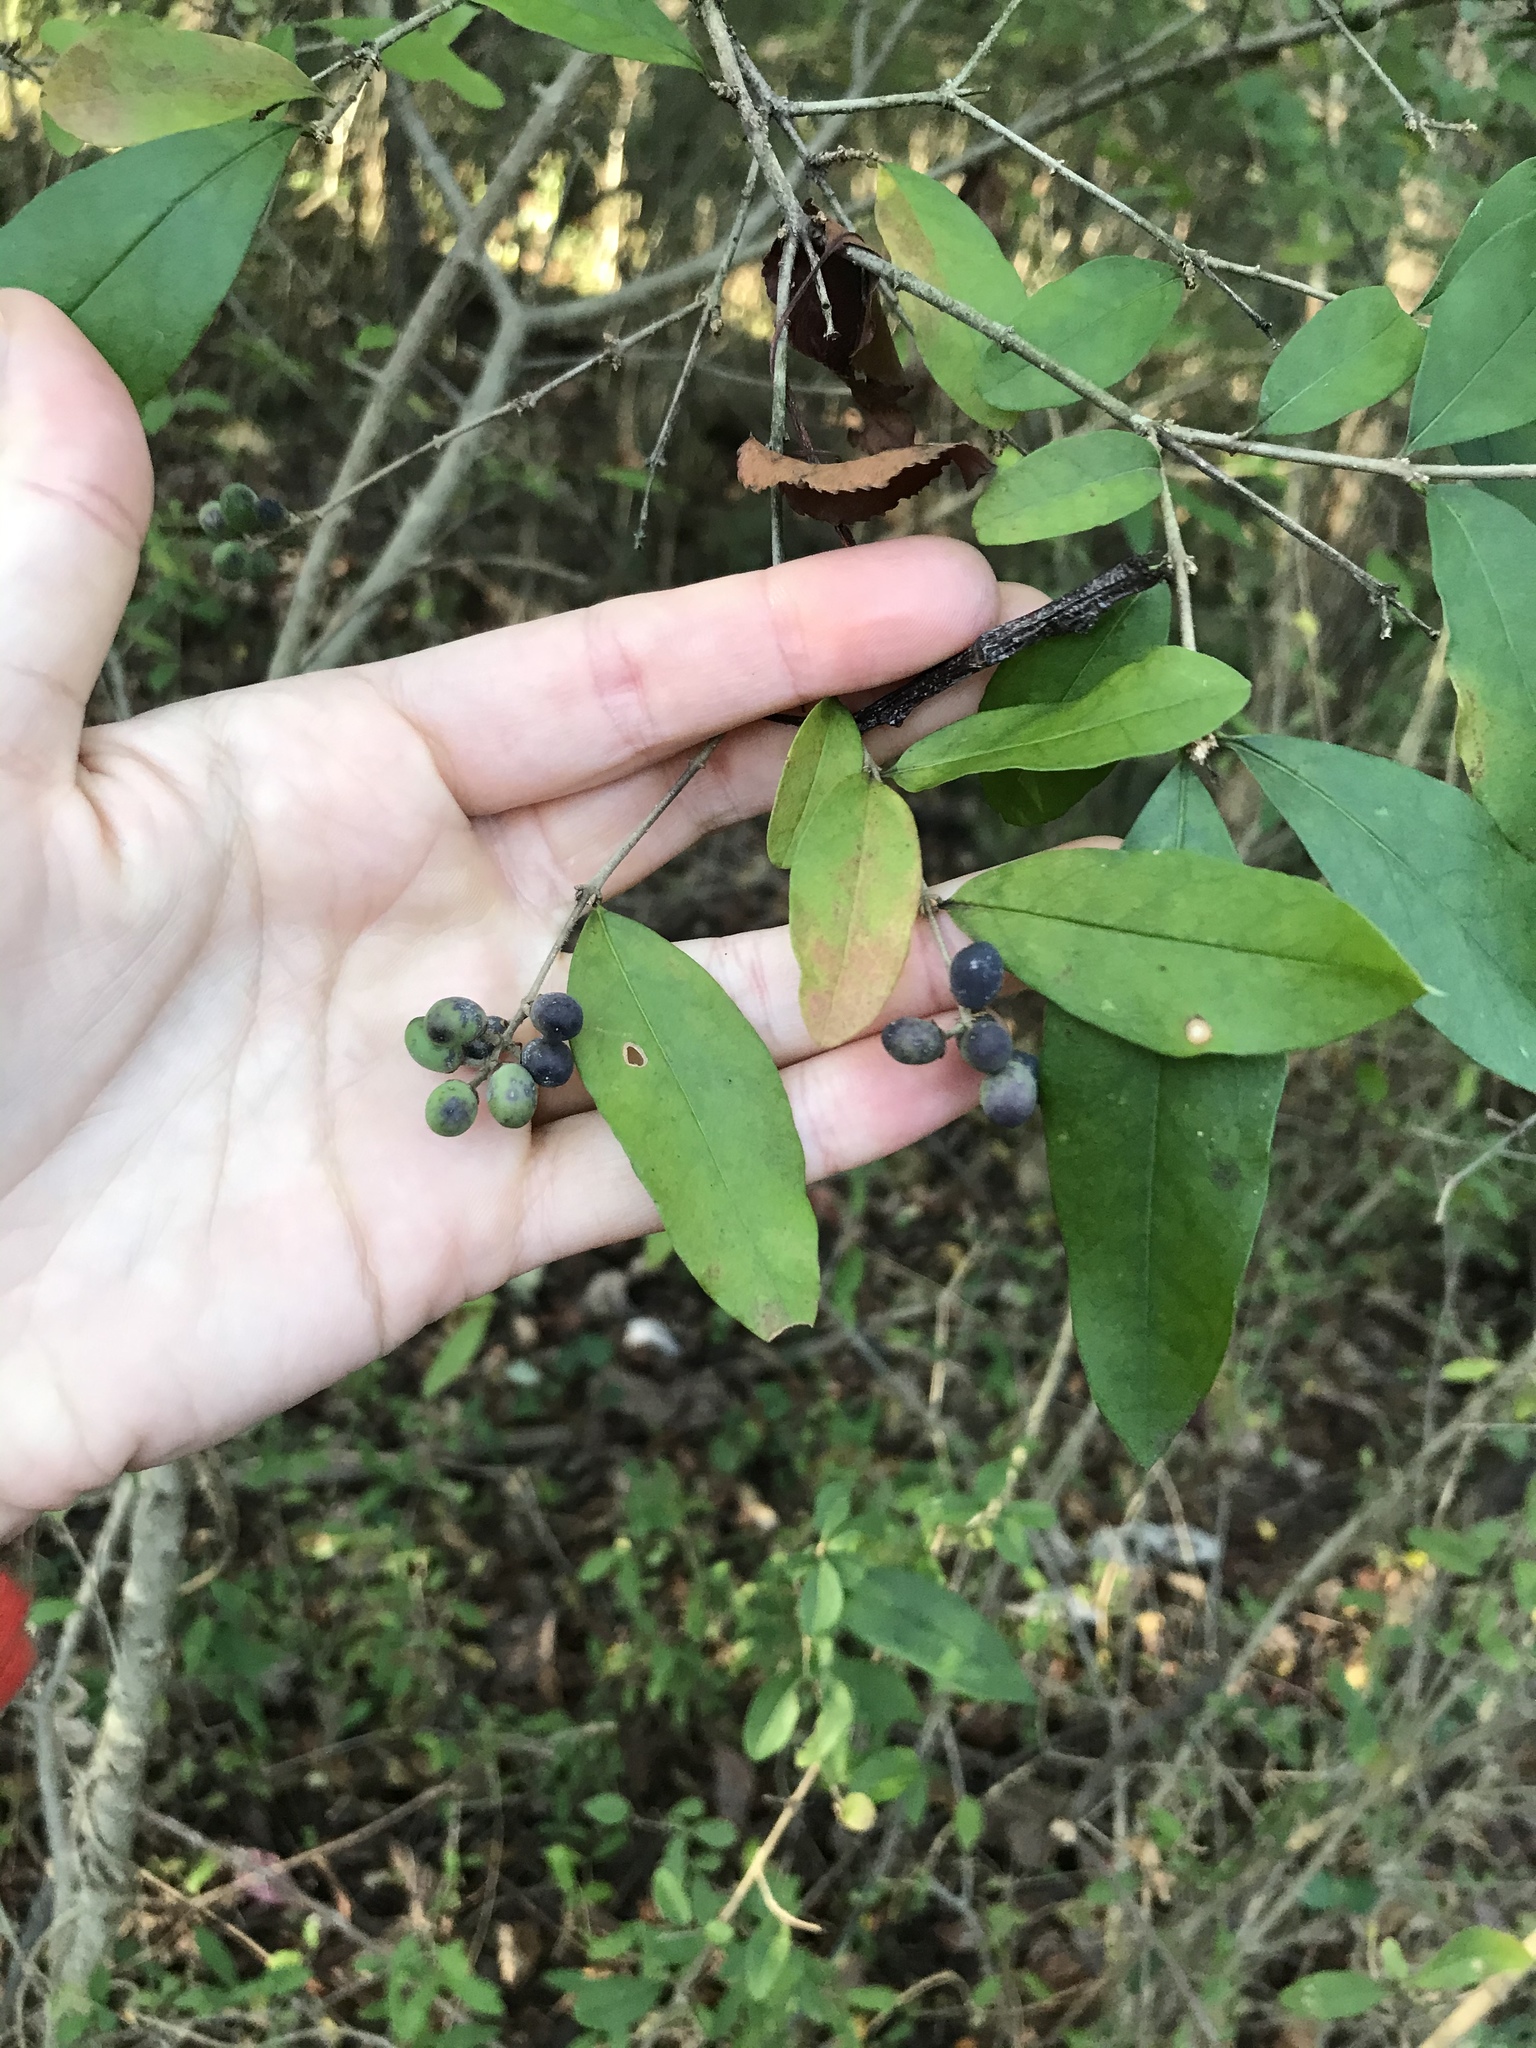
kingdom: Plantae
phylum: Tracheophyta
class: Magnoliopsida
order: Lamiales
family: Oleaceae
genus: Ligustrum
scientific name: Ligustrum obtusifolium
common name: Border privet
